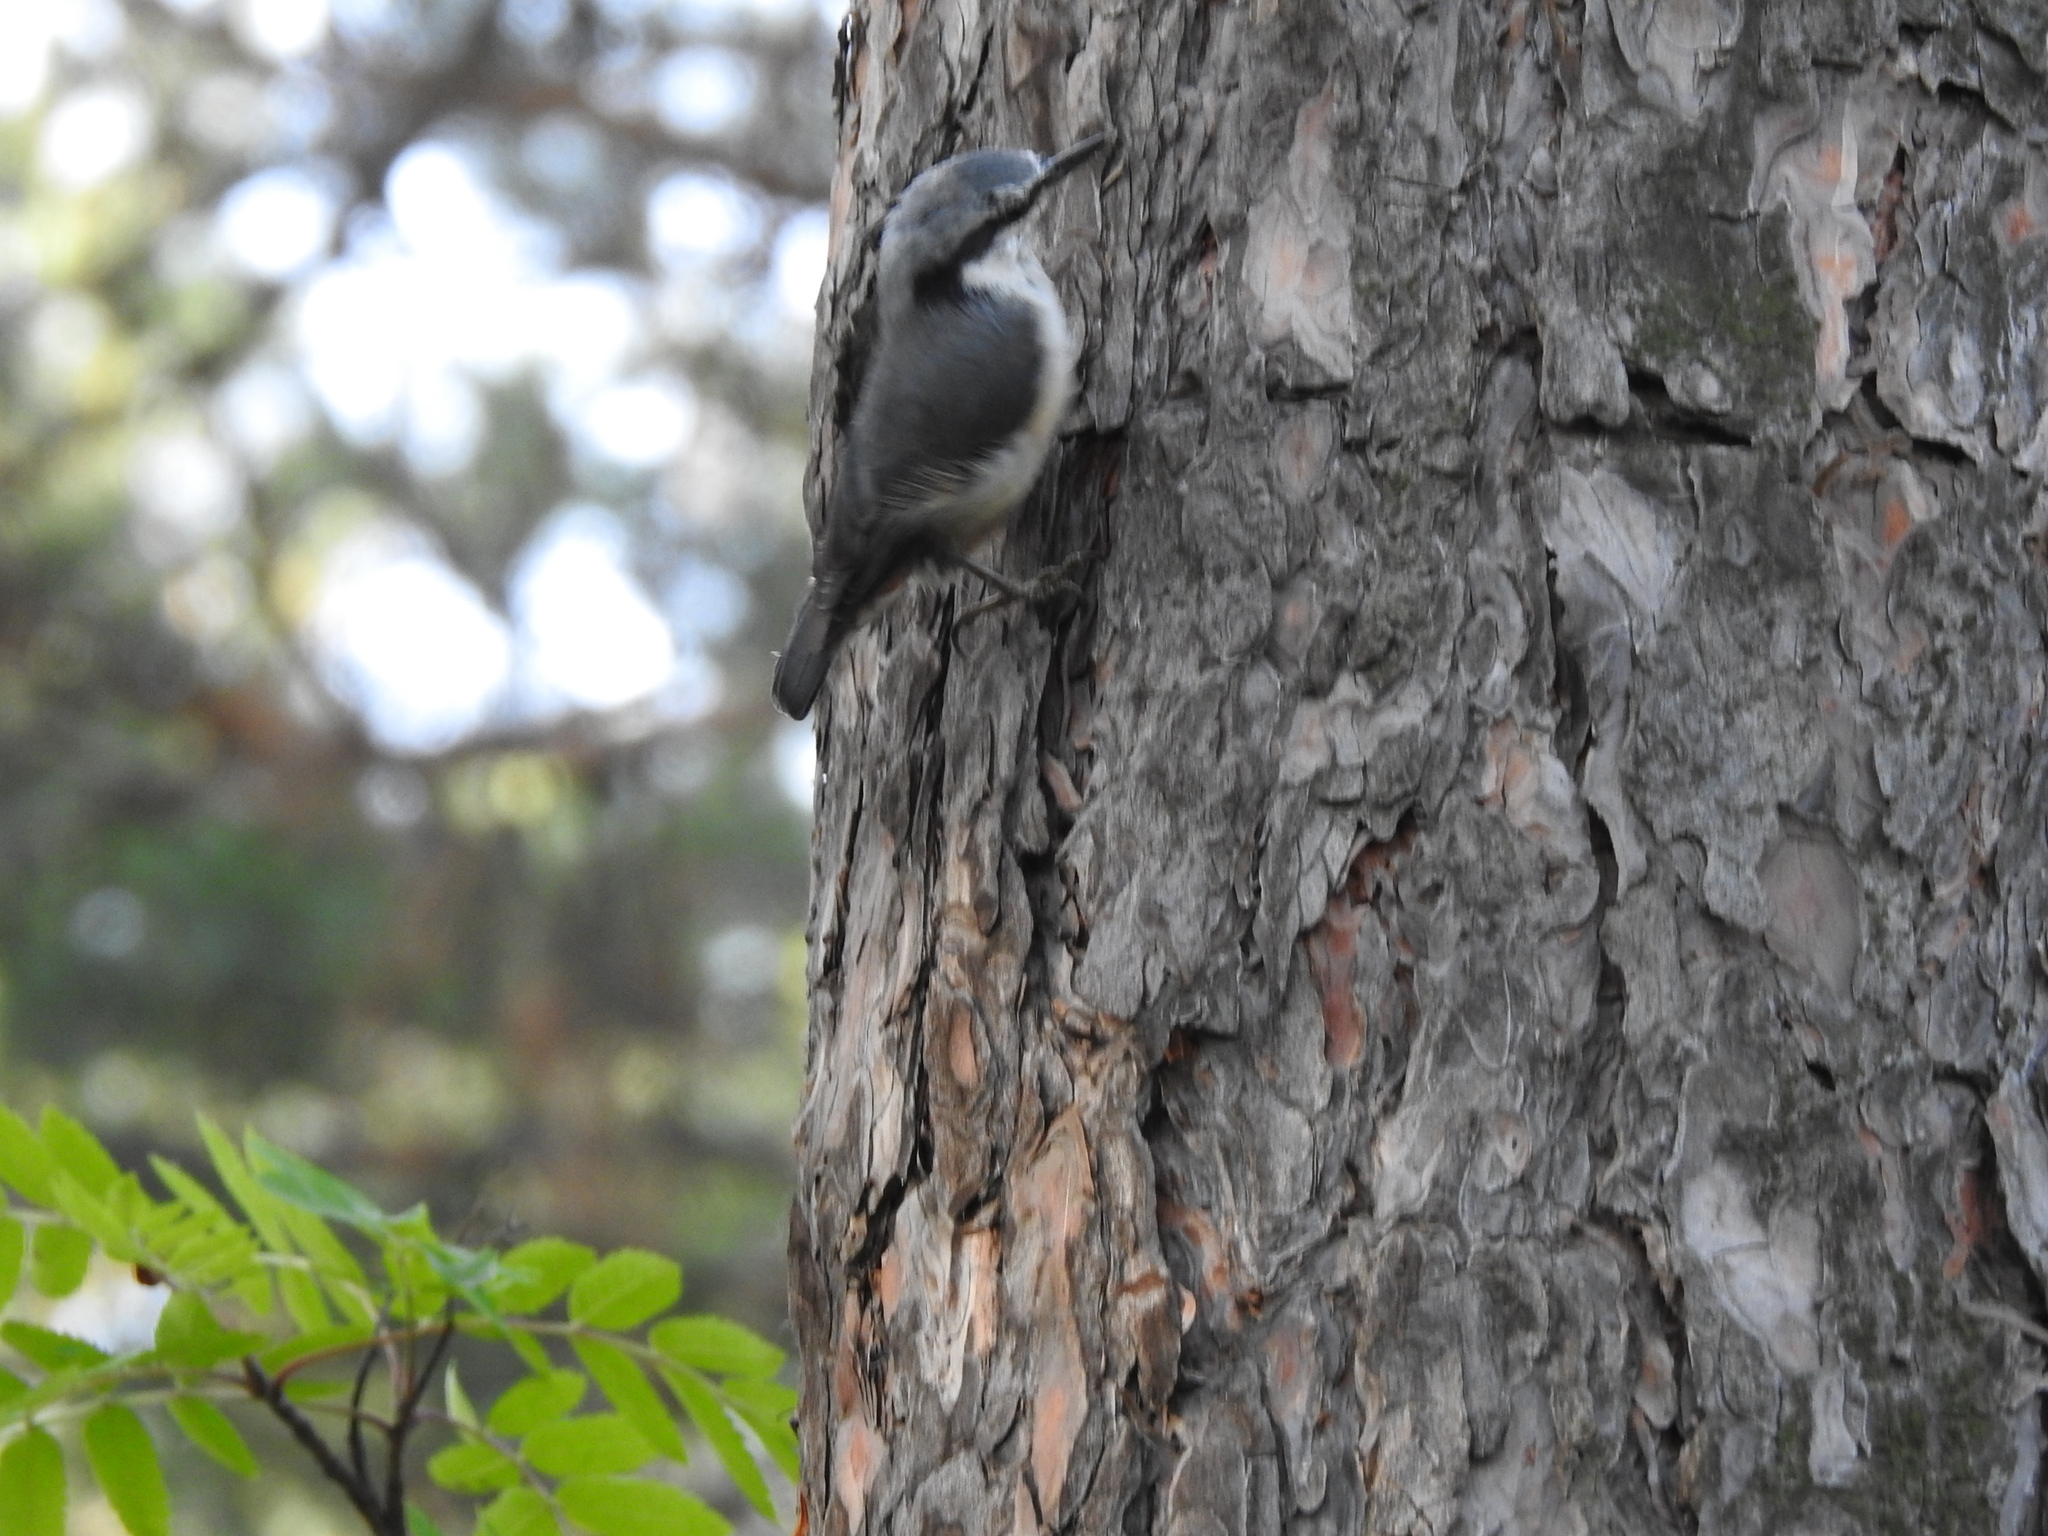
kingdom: Animalia
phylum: Chordata
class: Aves
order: Passeriformes
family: Sittidae
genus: Sitta
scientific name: Sitta europaea
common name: Eurasian nuthatch
